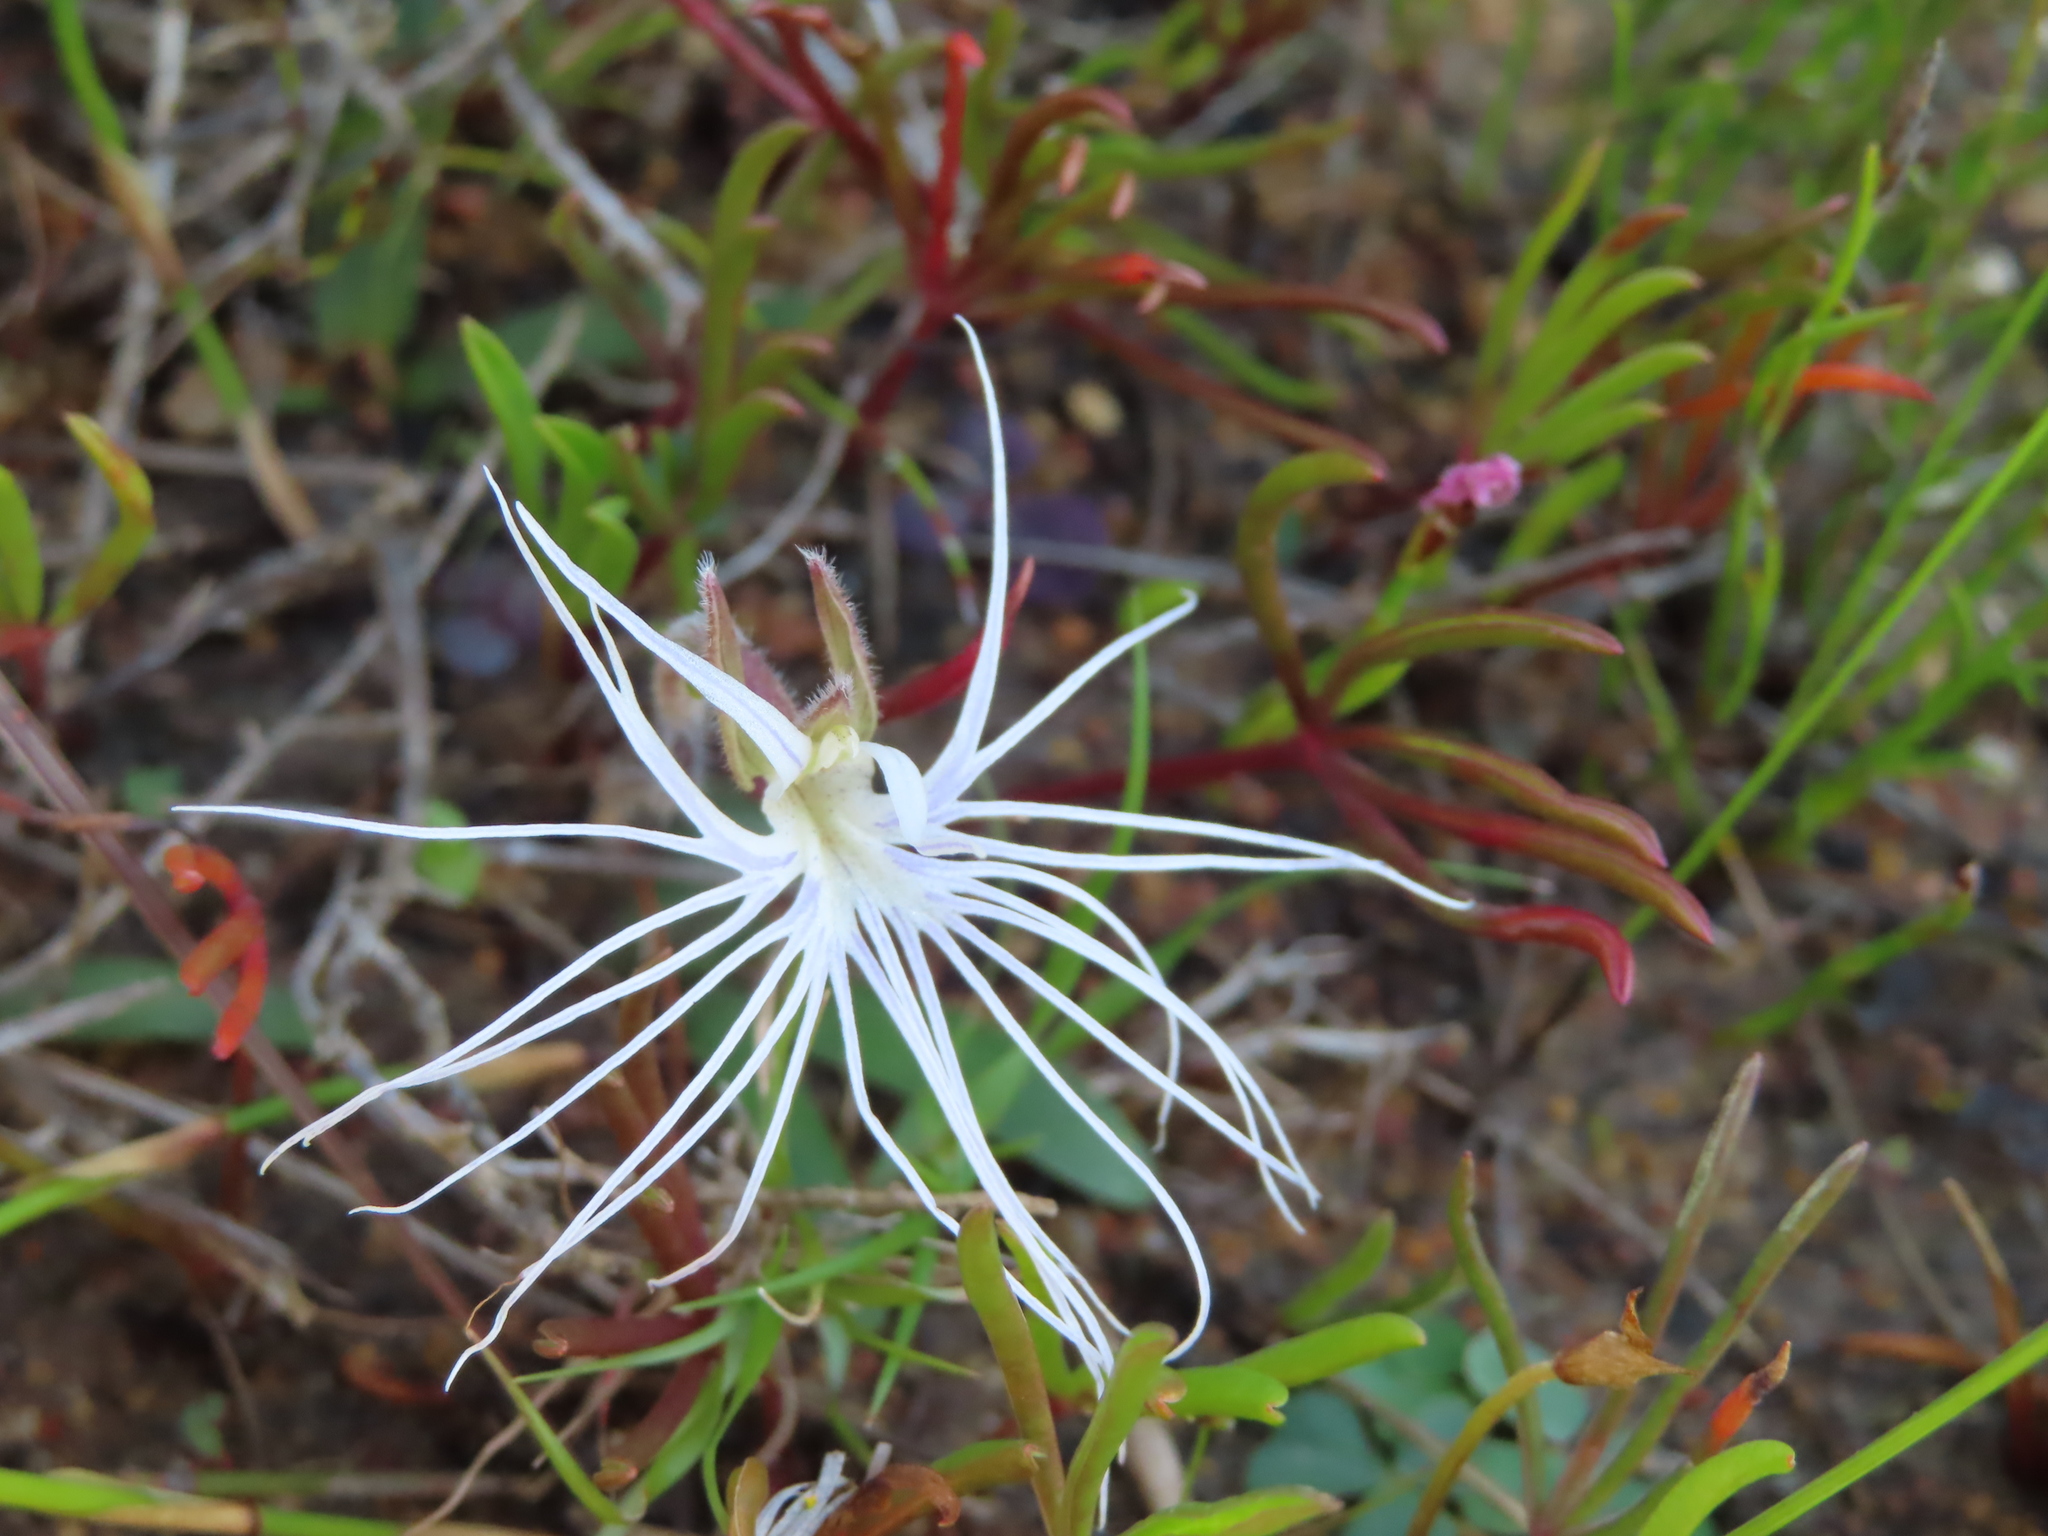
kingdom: Plantae
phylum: Tracheophyta
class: Liliopsida
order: Asparagales
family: Orchidaceae
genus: Holothrix
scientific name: Holothrix burmanniana
